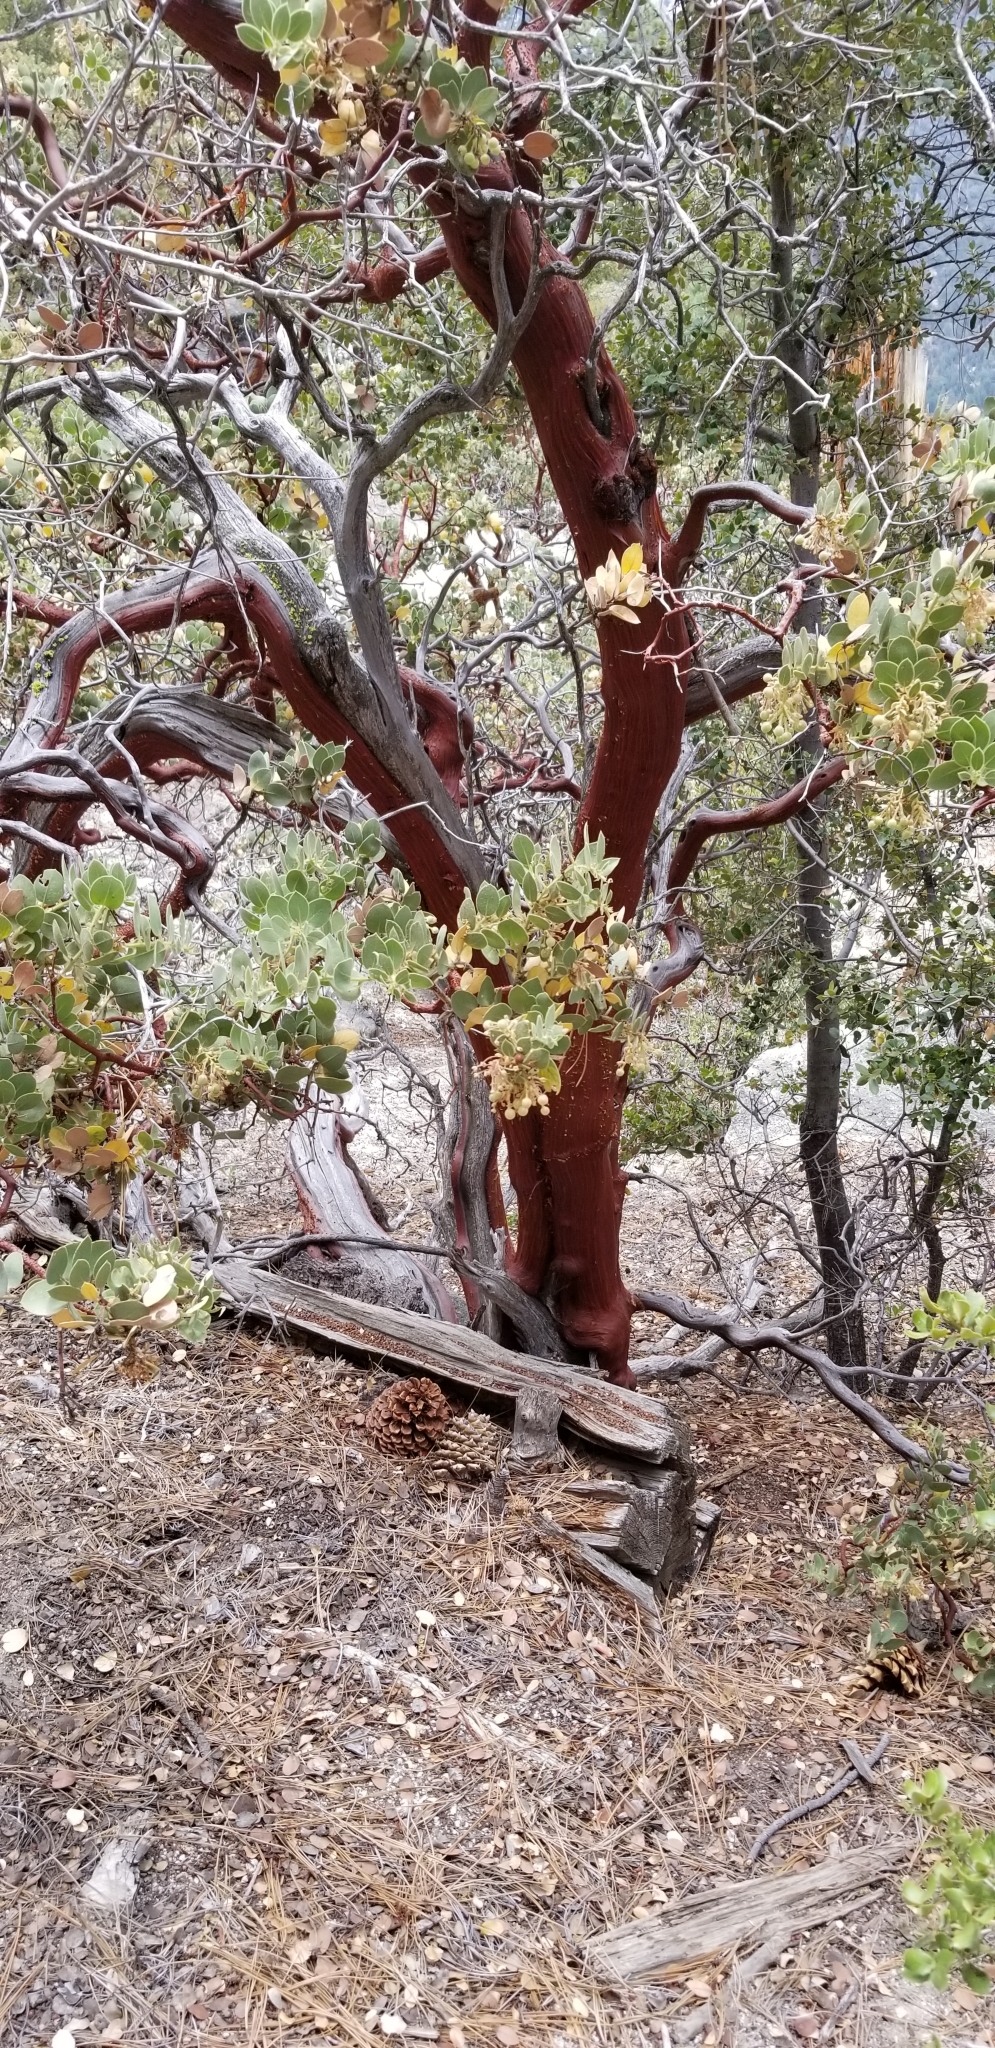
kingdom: Plantae
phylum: Tracheophyta
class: Magnoliopsida
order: Ericales
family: Ericaceae
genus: Arctostaphylos
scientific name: Arctostaphylos pringlei
